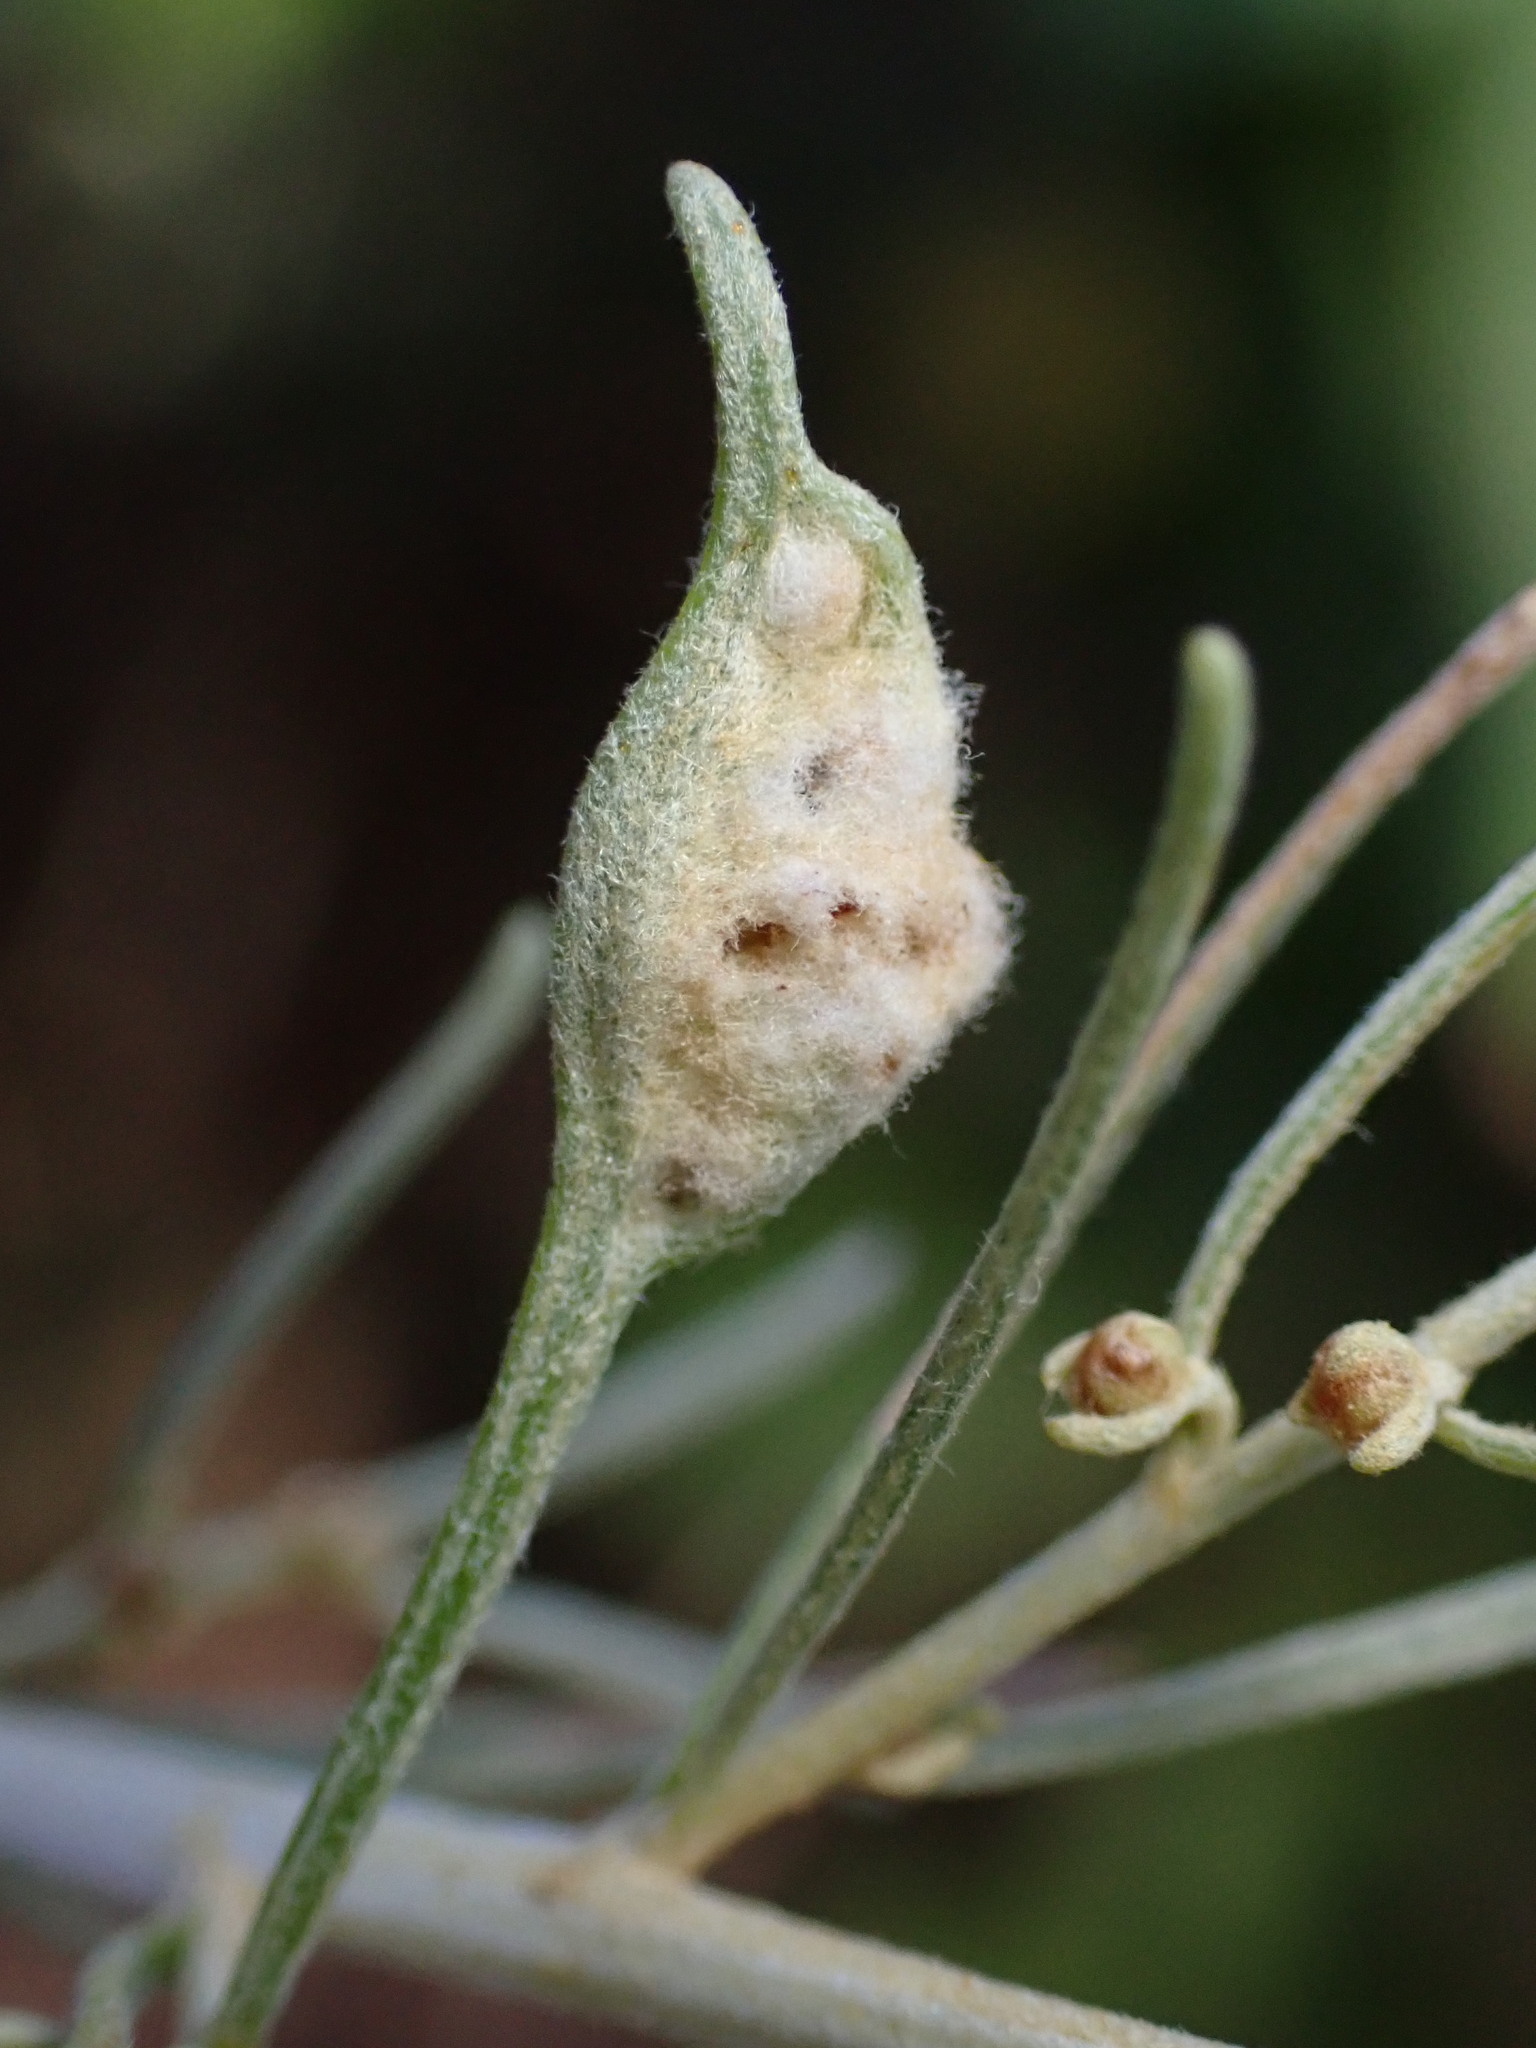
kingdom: Animalia
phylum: Arthropoda
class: Arachnida
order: Trombidiformes
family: Eriophyidae
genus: Aceria
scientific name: Aceria
